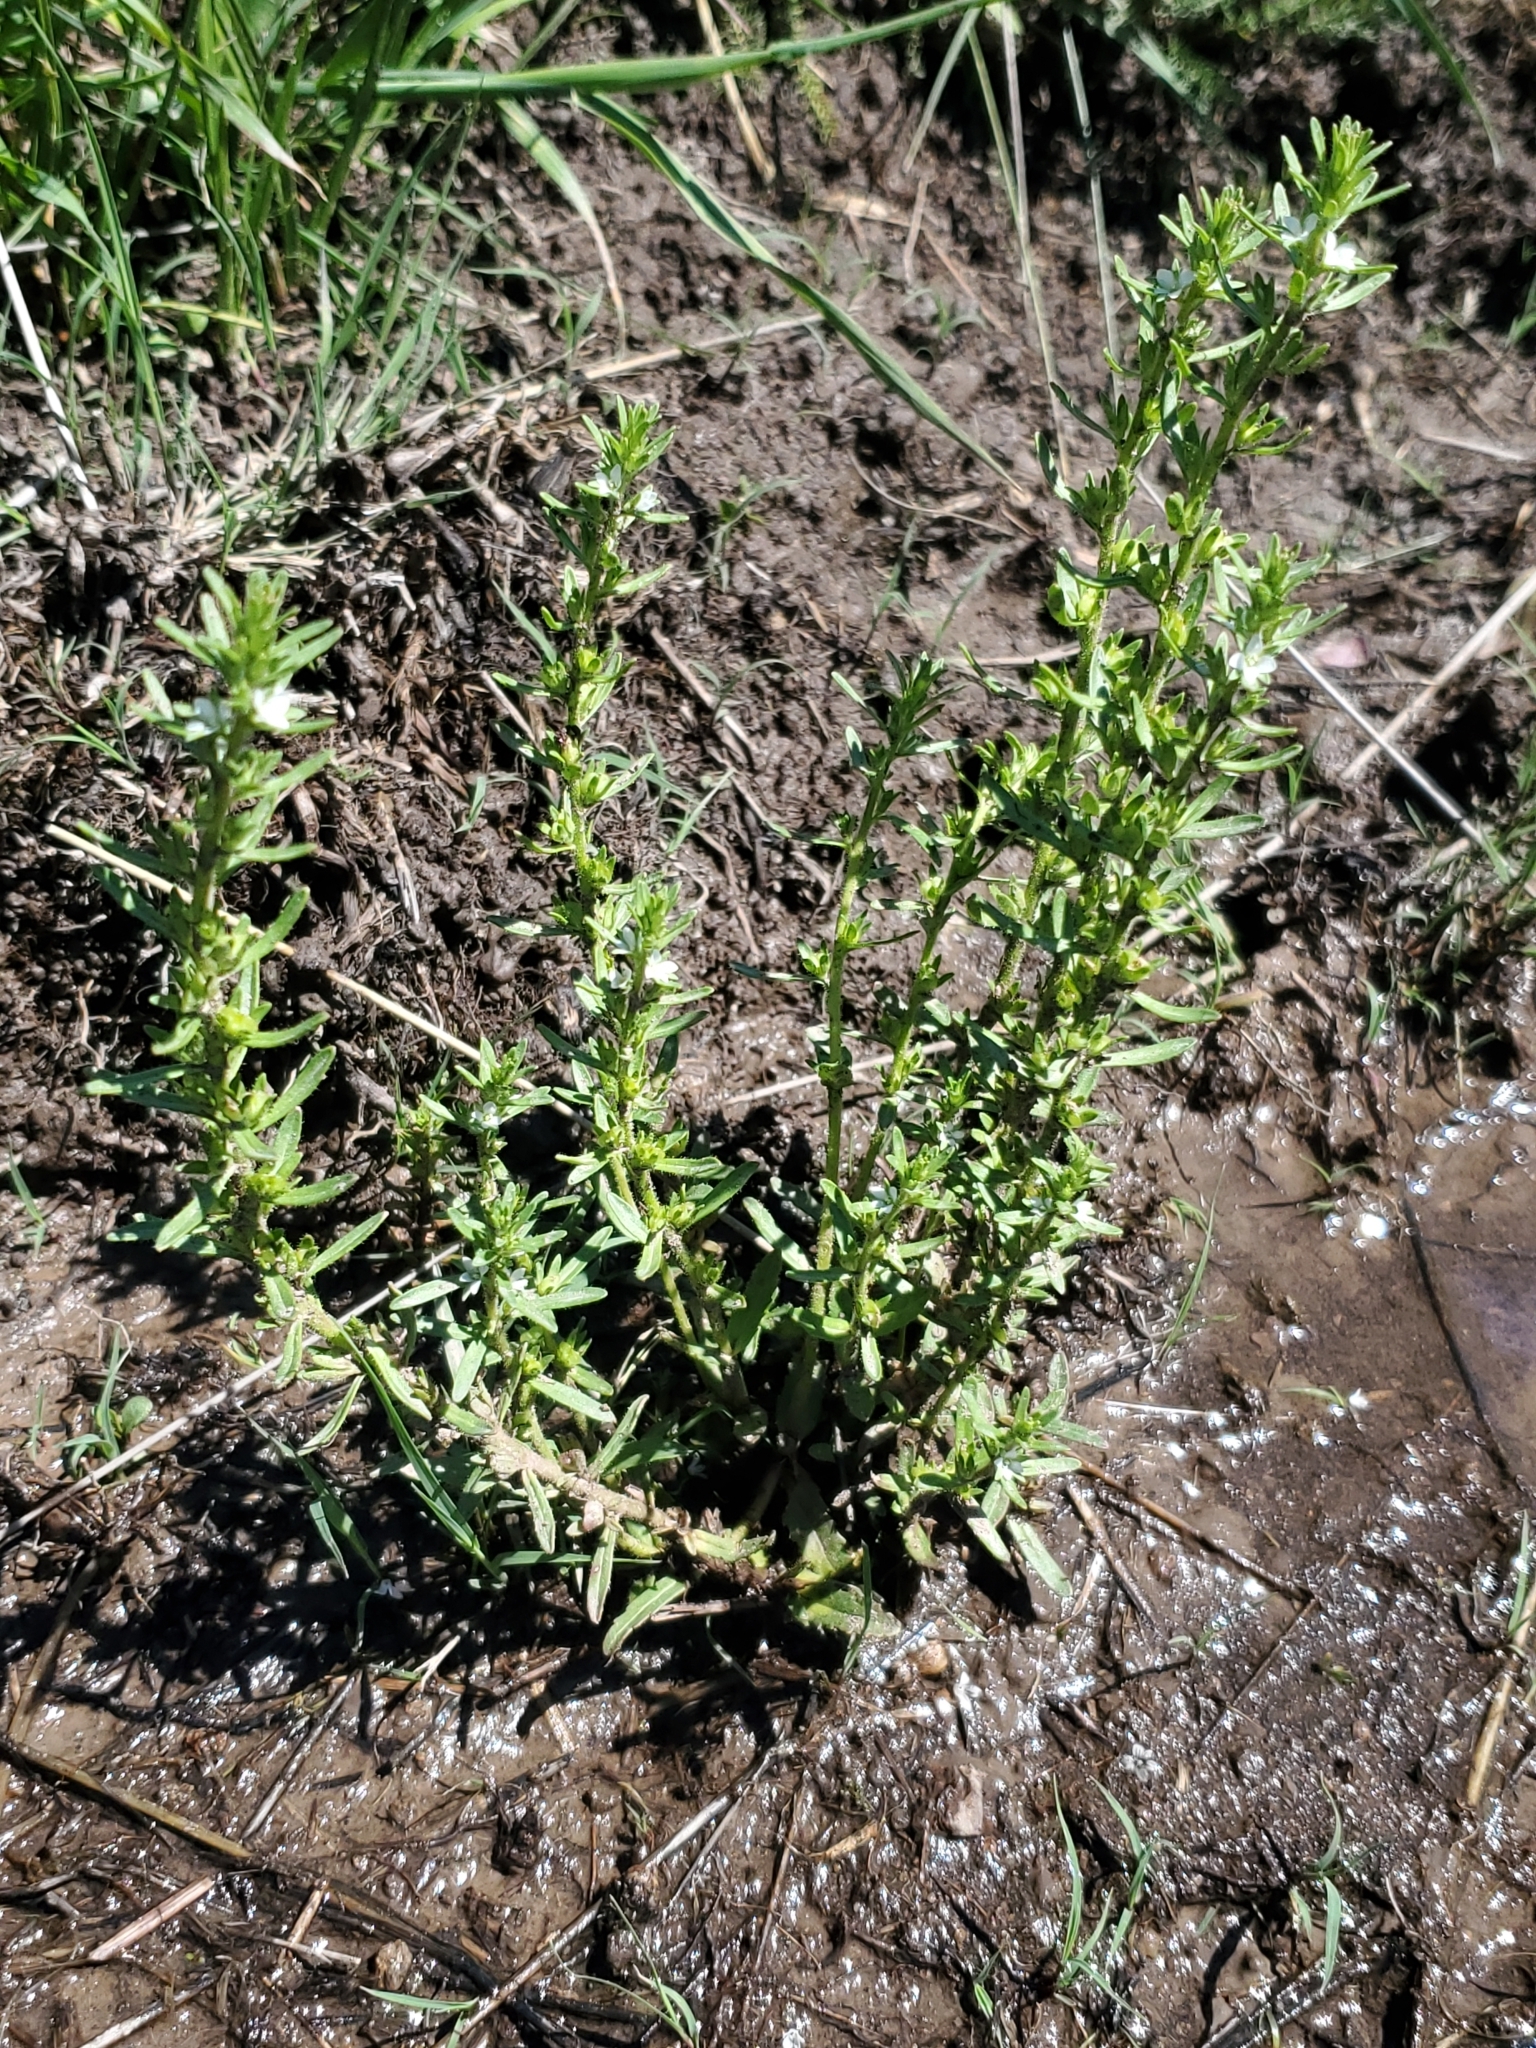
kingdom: Plantae
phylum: Tracheophyta
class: Magnoliopsida
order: Lamiales
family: Plantaginaceae
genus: Veronica
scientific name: Veronica peregrina
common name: Neckweed
